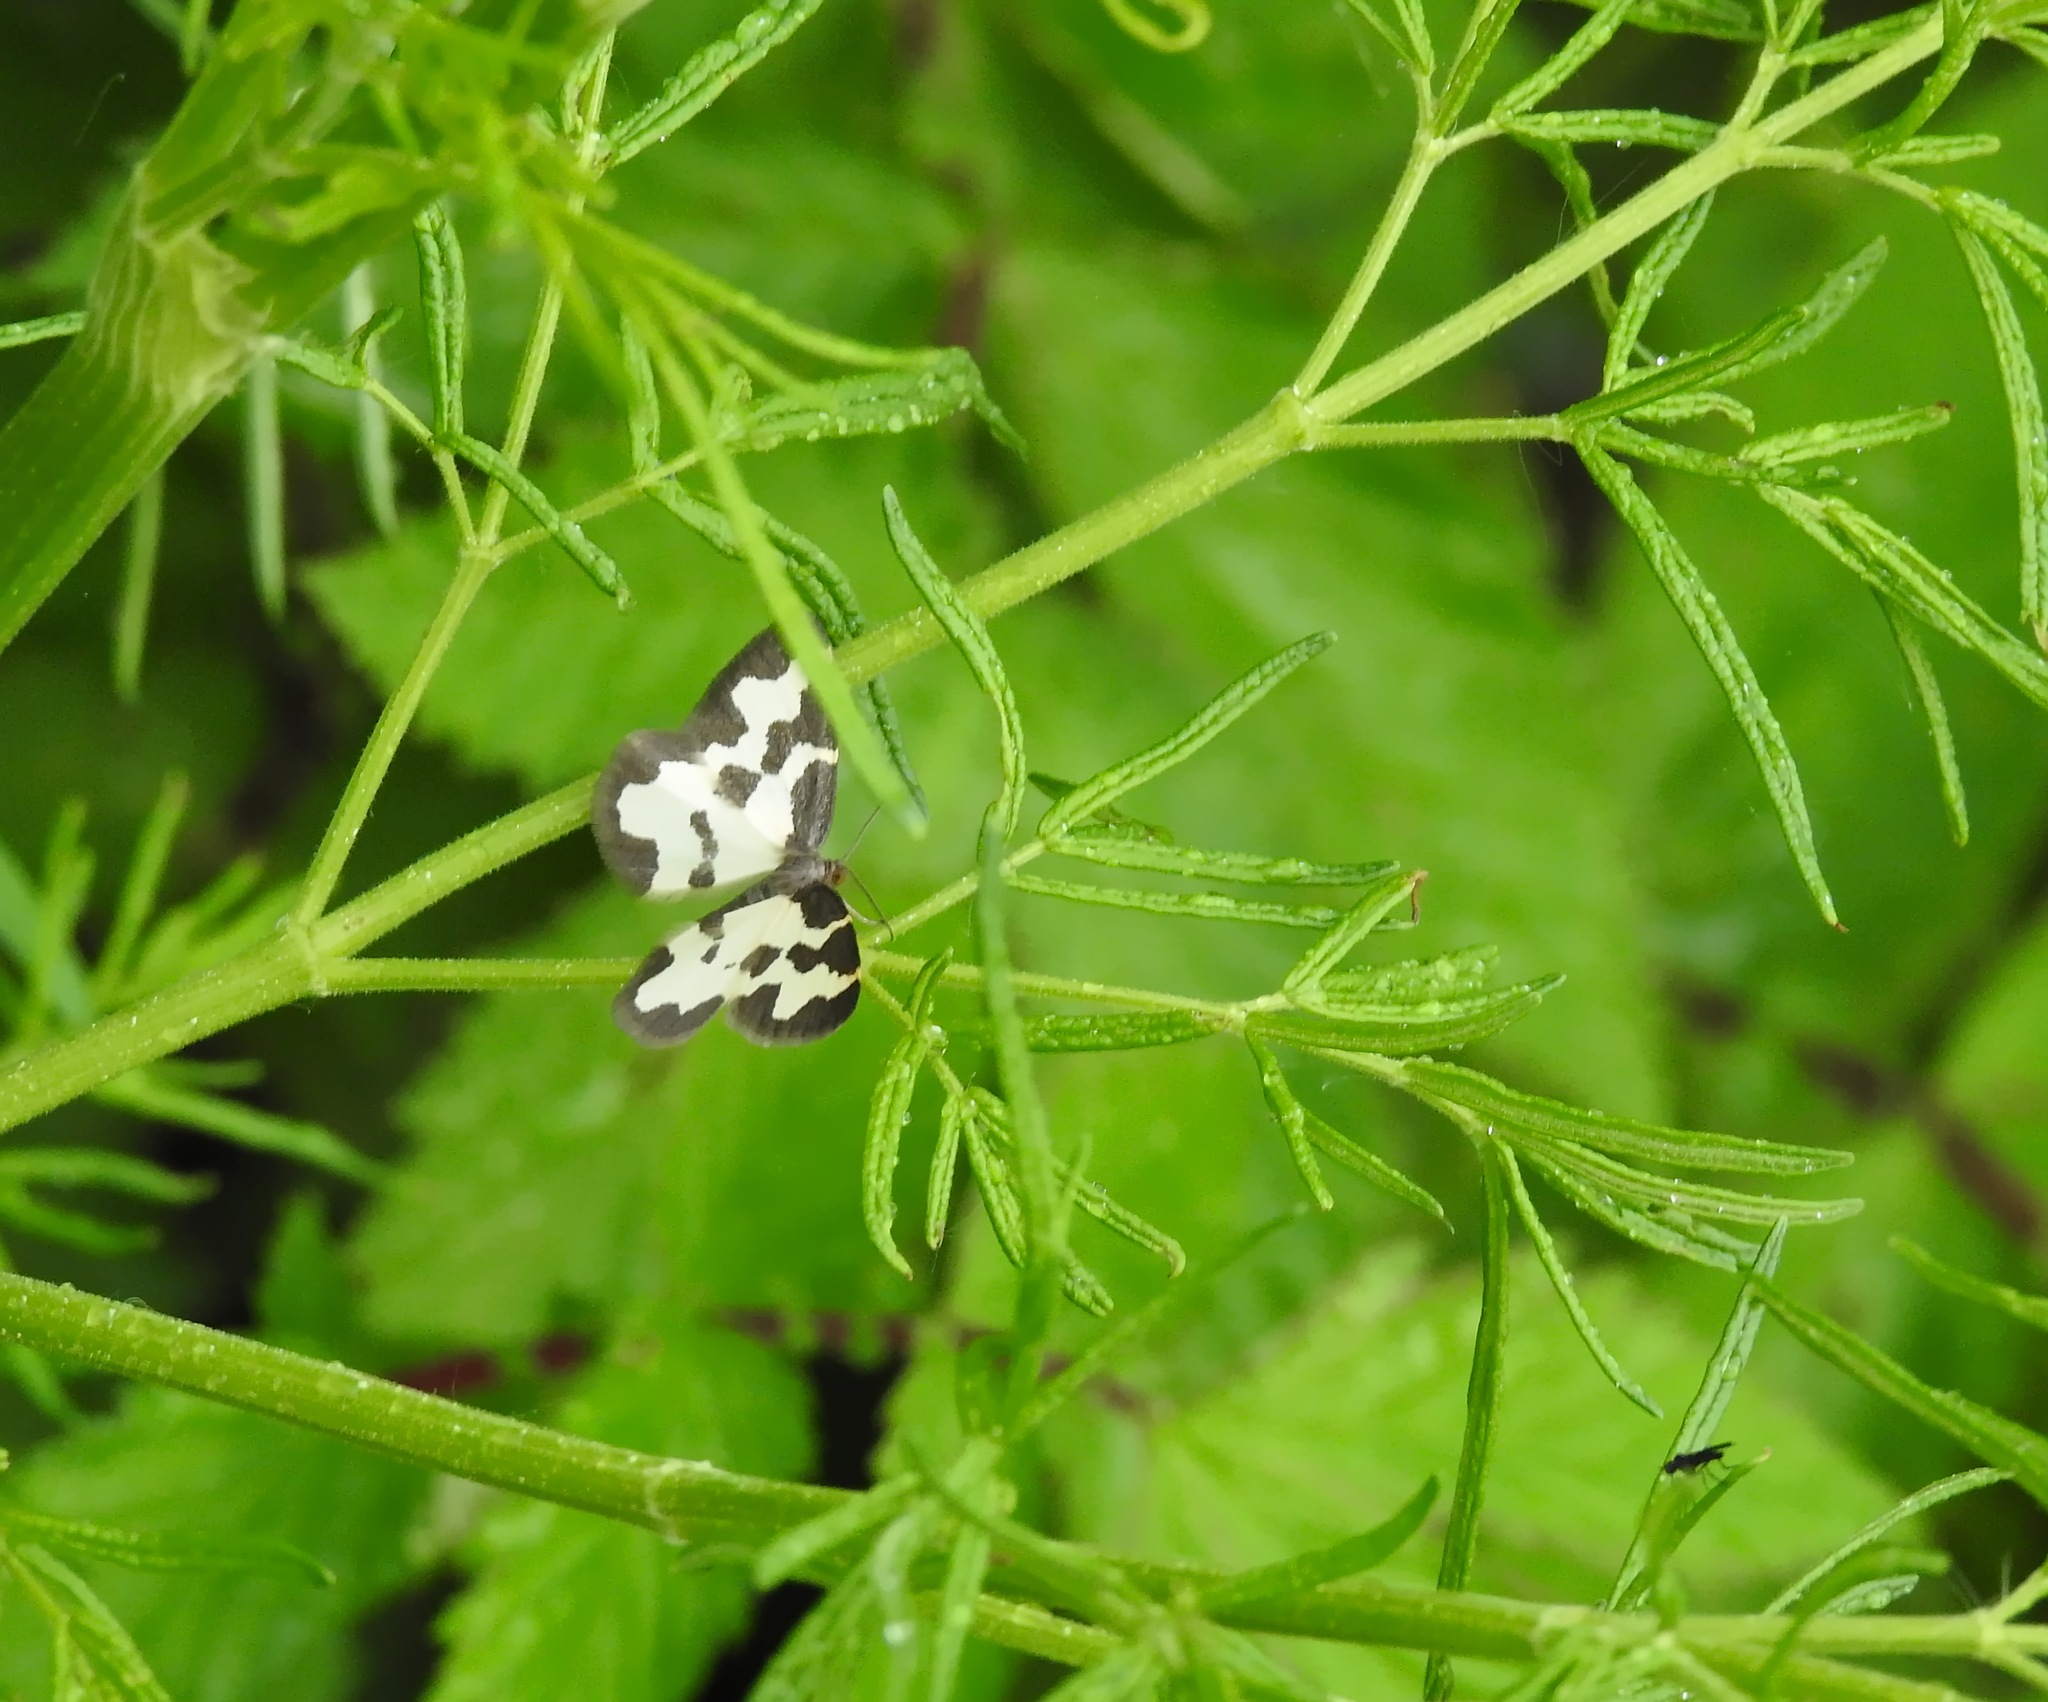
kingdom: Animalia
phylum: Arthropoda
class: Insecta
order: Lepidoptera
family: Geometridae
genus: Lomaspilis
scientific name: Lomaspilis marginata
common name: Clouded border
